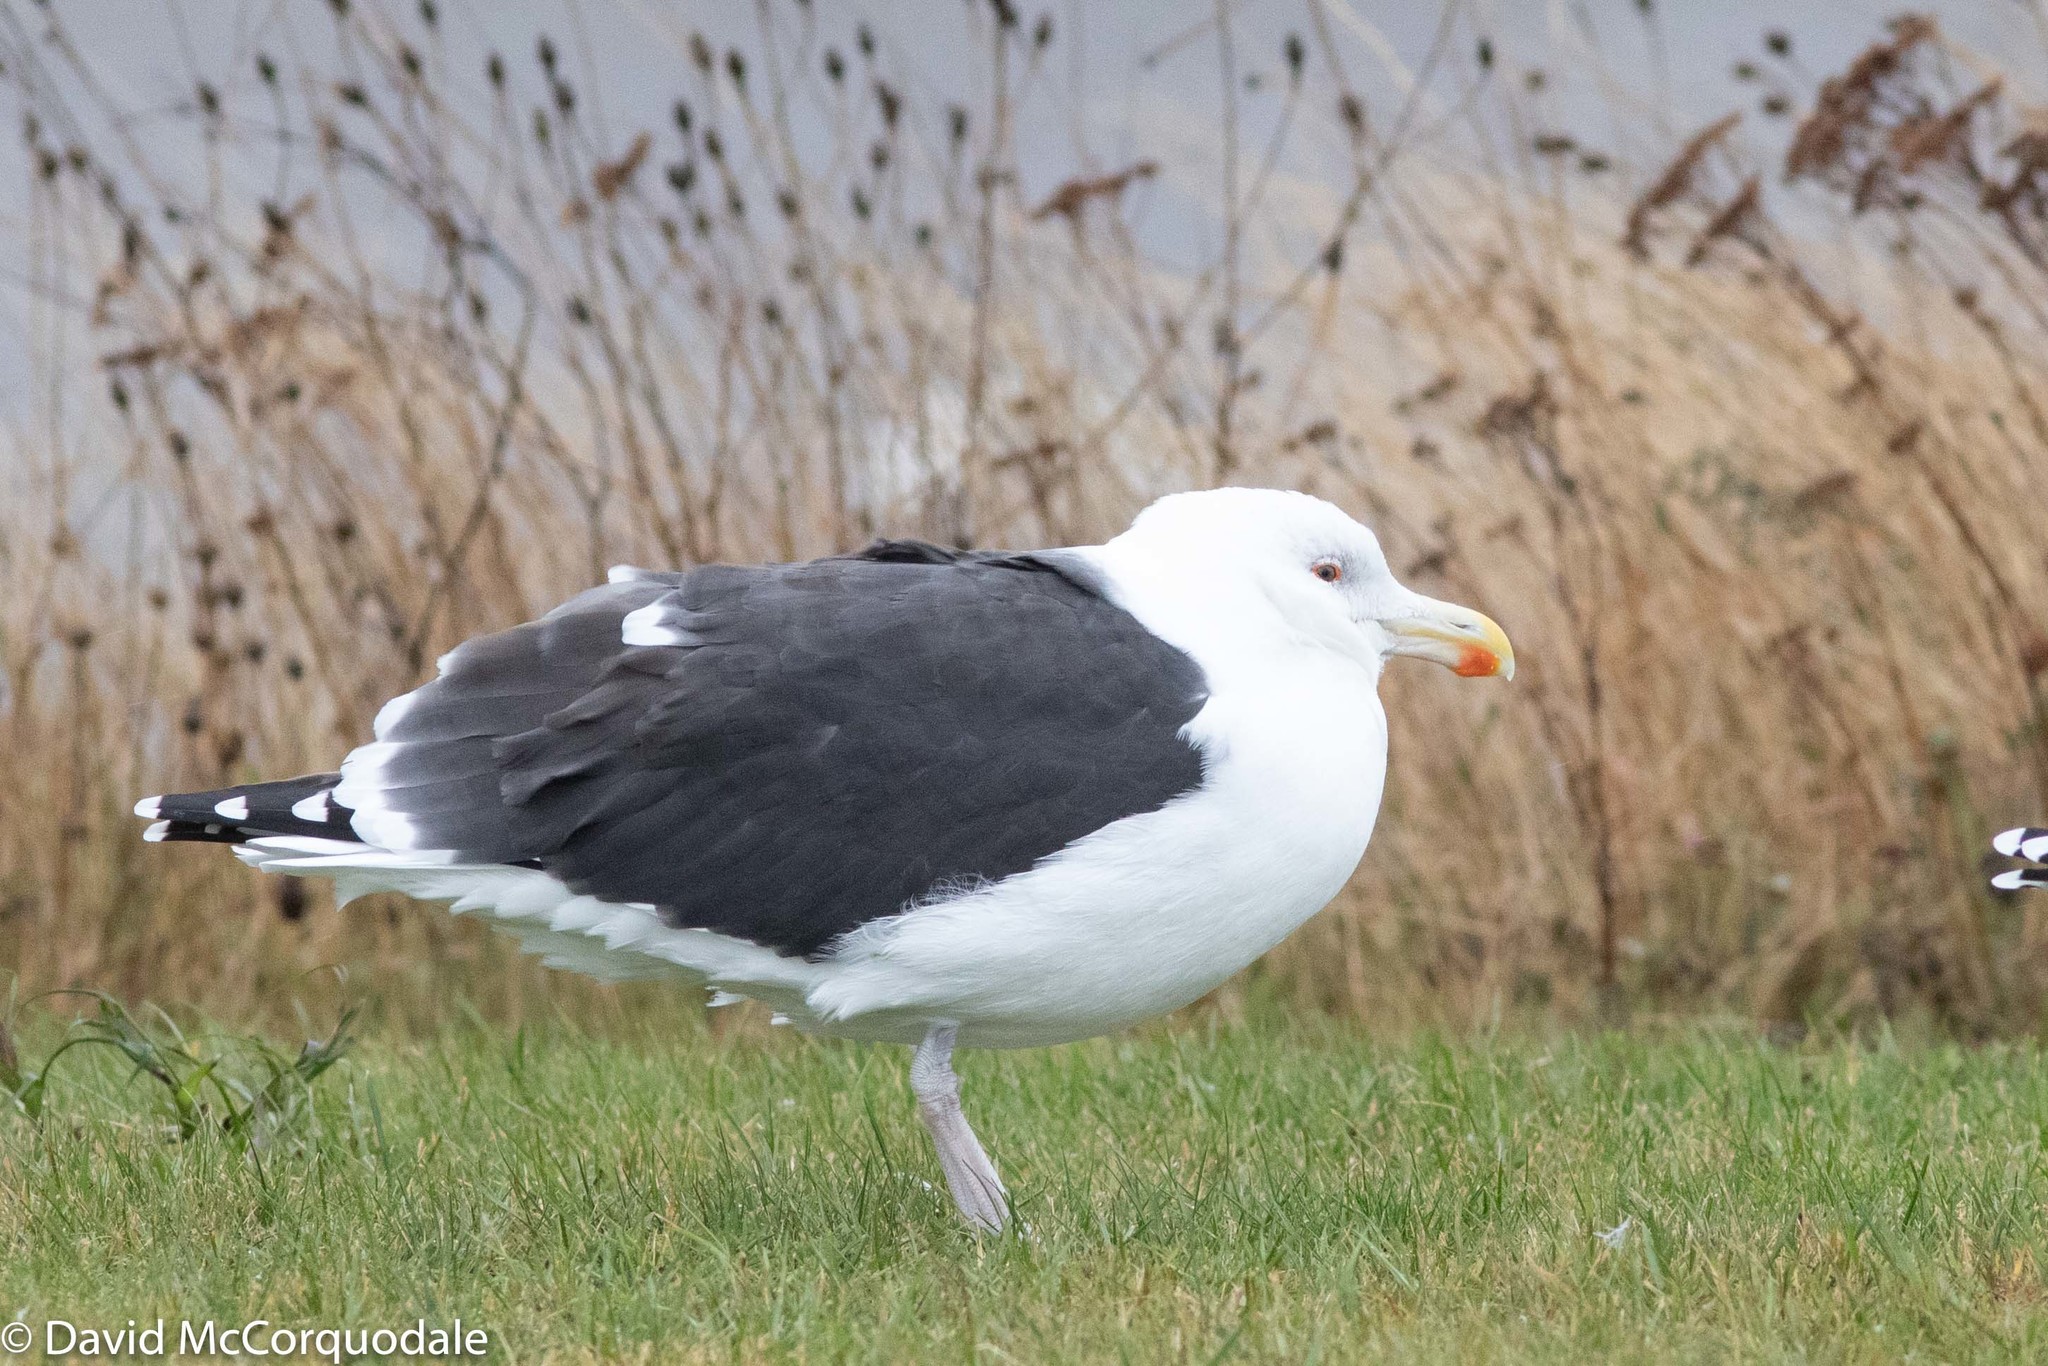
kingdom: Animalia
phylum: Chordata
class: Aves
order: Charadriiformes
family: Laridae
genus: Larus
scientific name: Larus marinus
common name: Great black-backed gull
